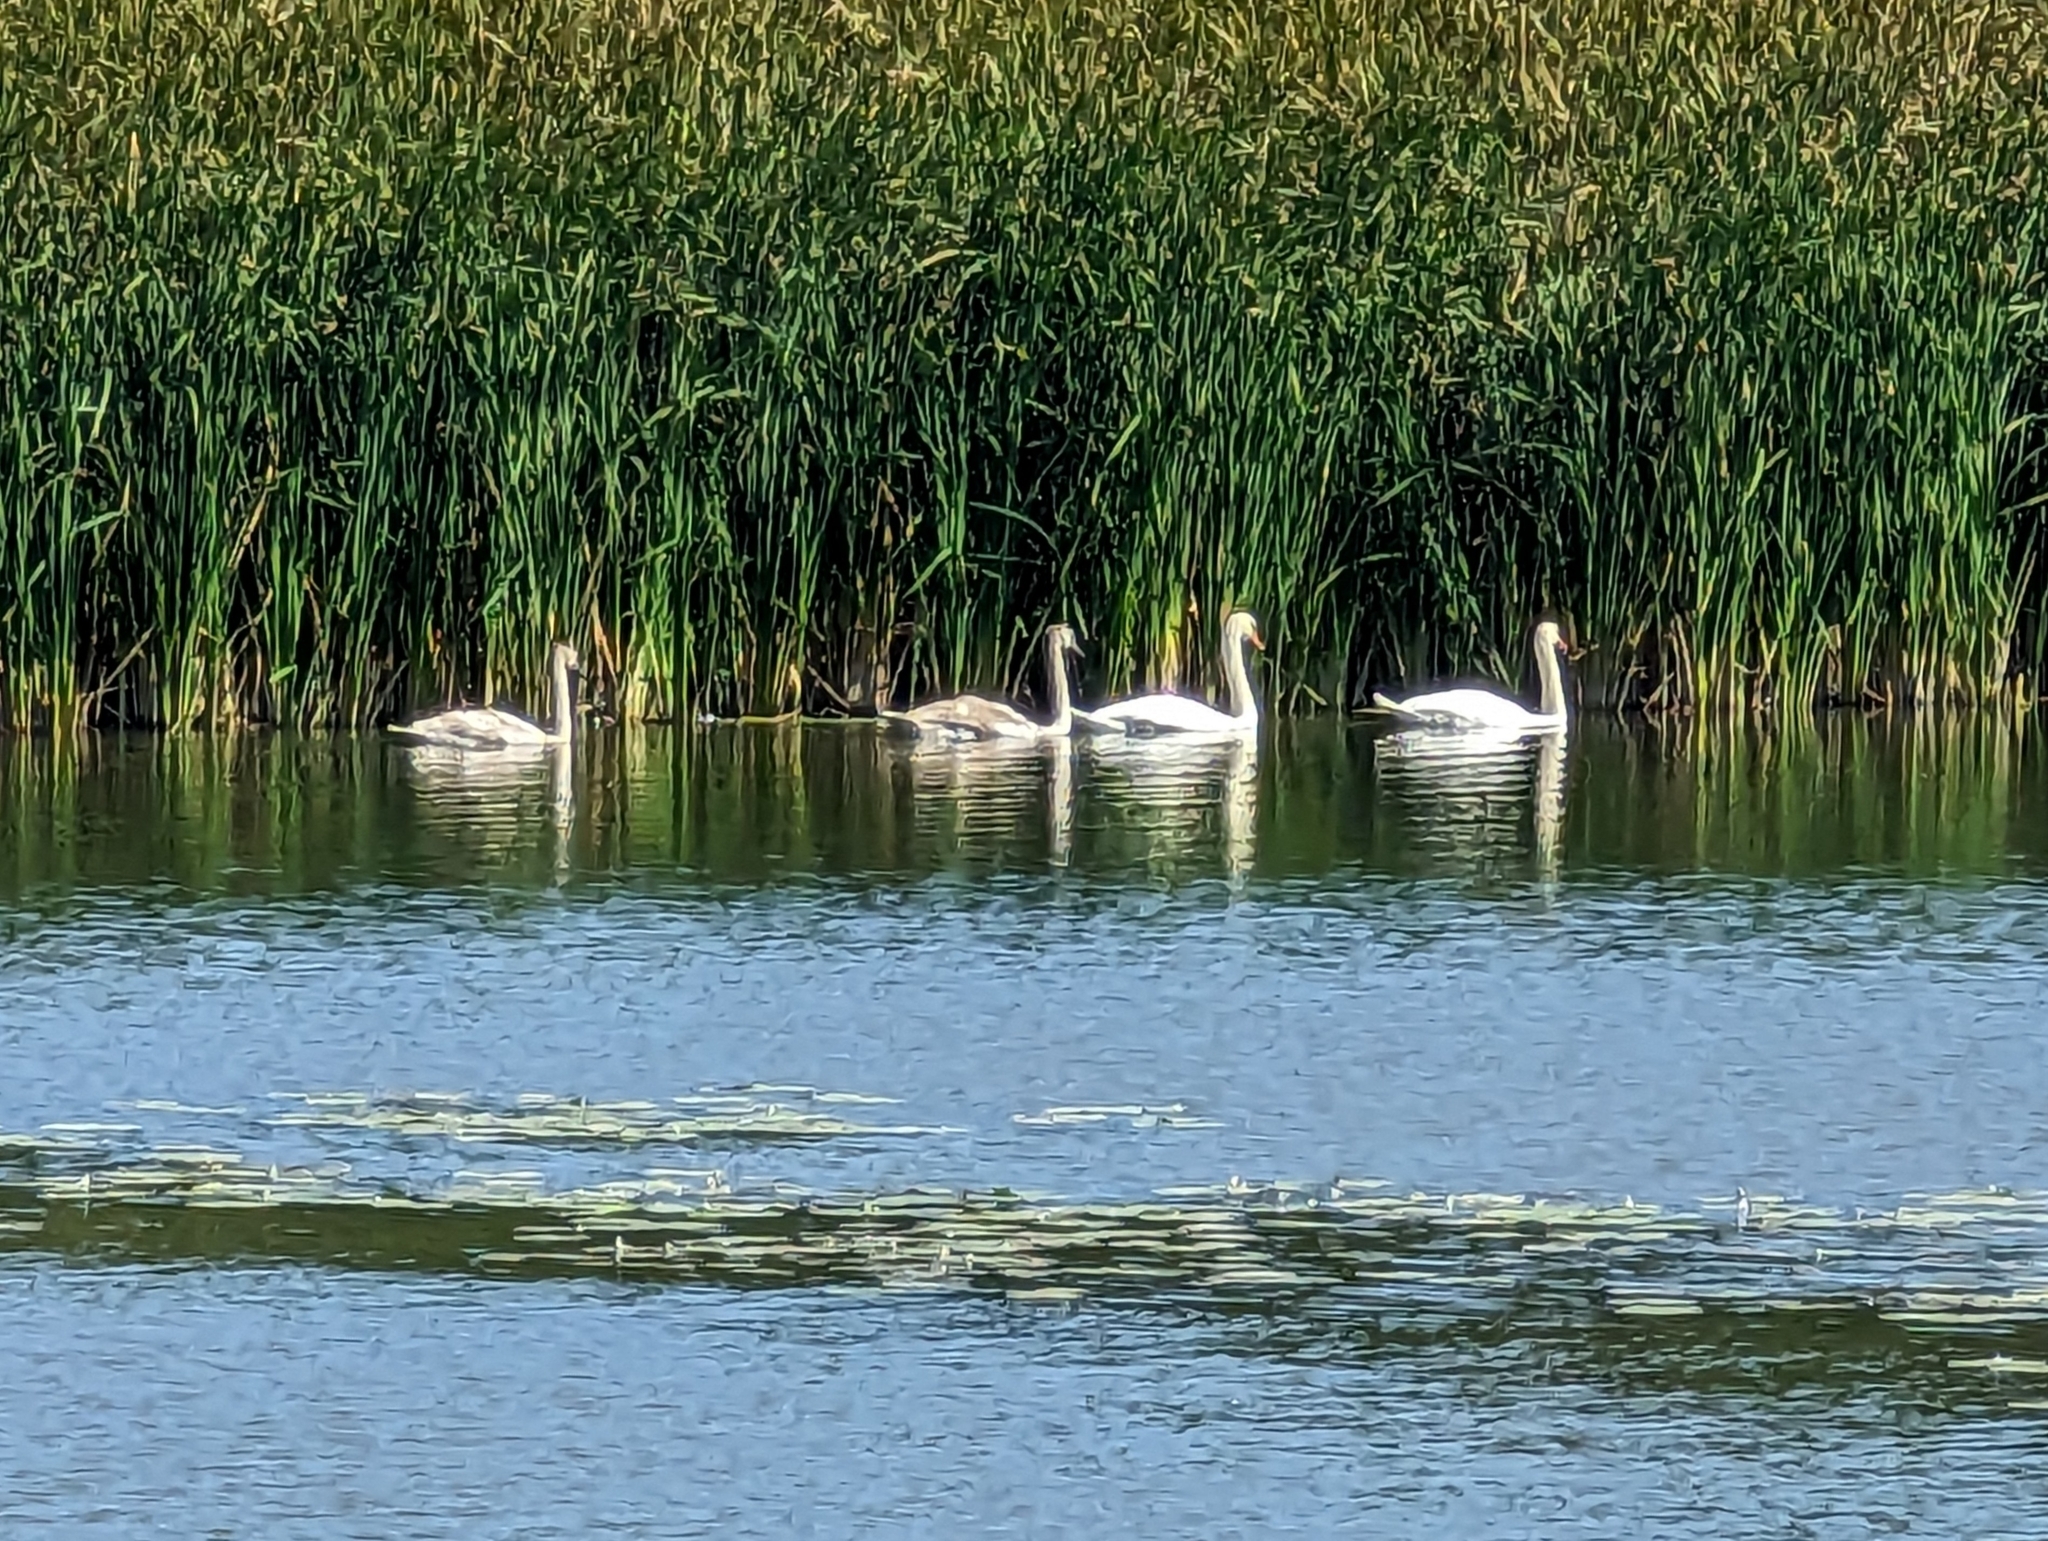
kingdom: Animalia
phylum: Chordata
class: Aves
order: Anseriformes
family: Anatidae
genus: Cygnus
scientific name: Cygnus olor
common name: Mute swan
